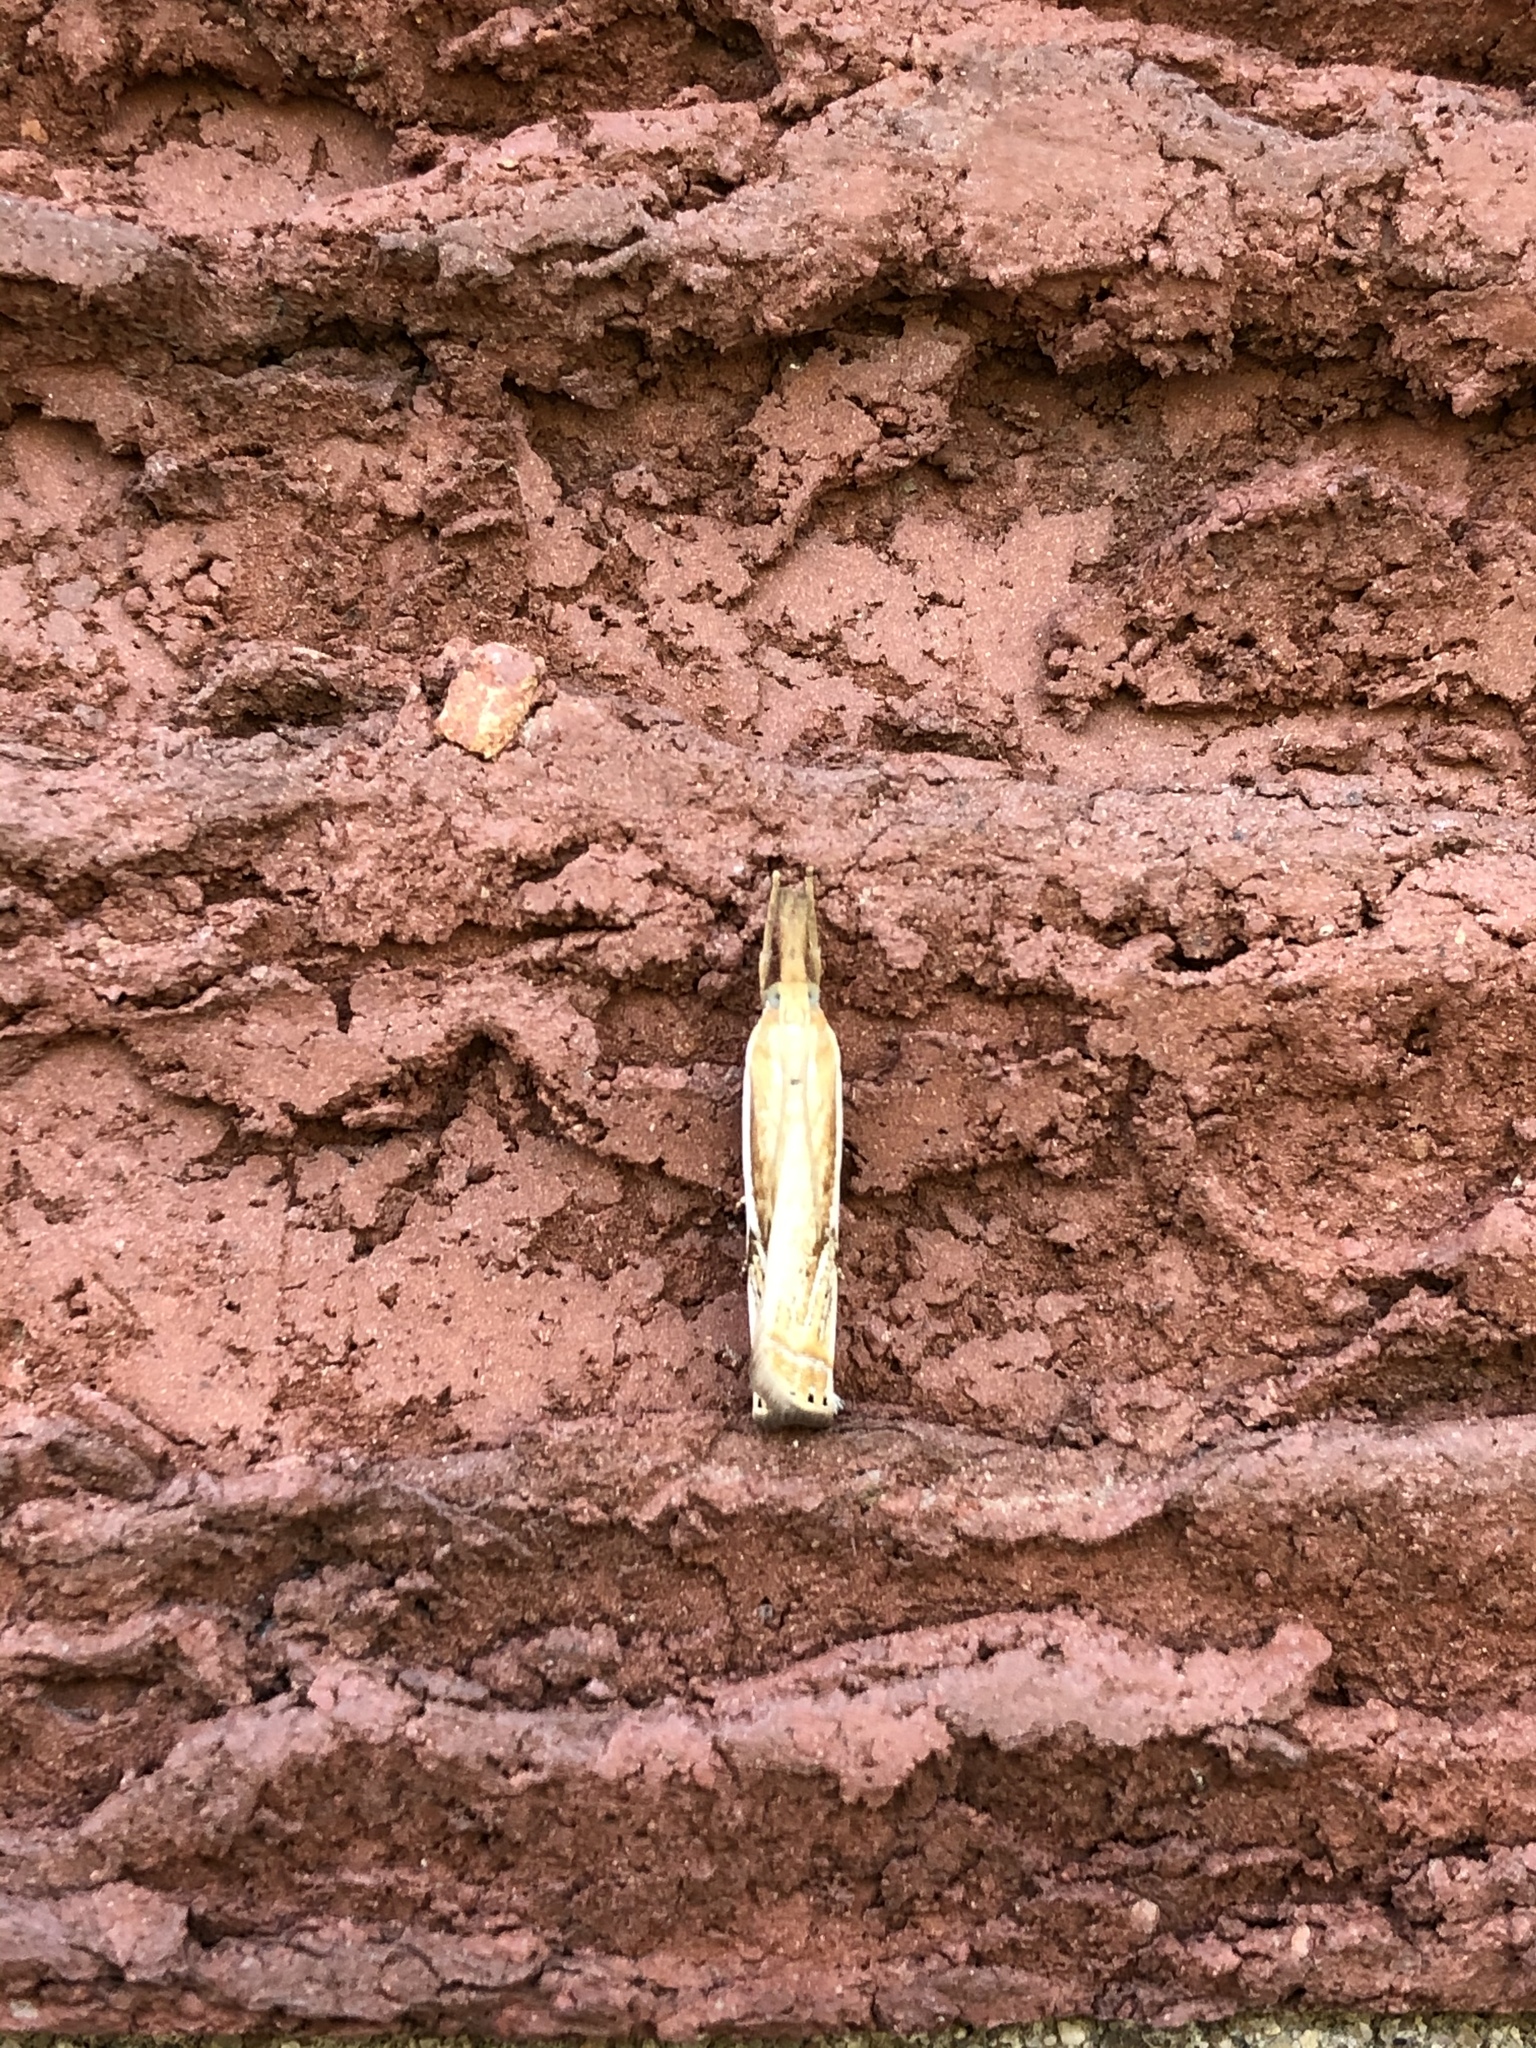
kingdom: Animalia
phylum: Arthropoda
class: Insecta
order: Lepidoptera
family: Crambidae
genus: Crambus
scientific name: Crambus agitatellus
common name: Double-banded grass-veneer
